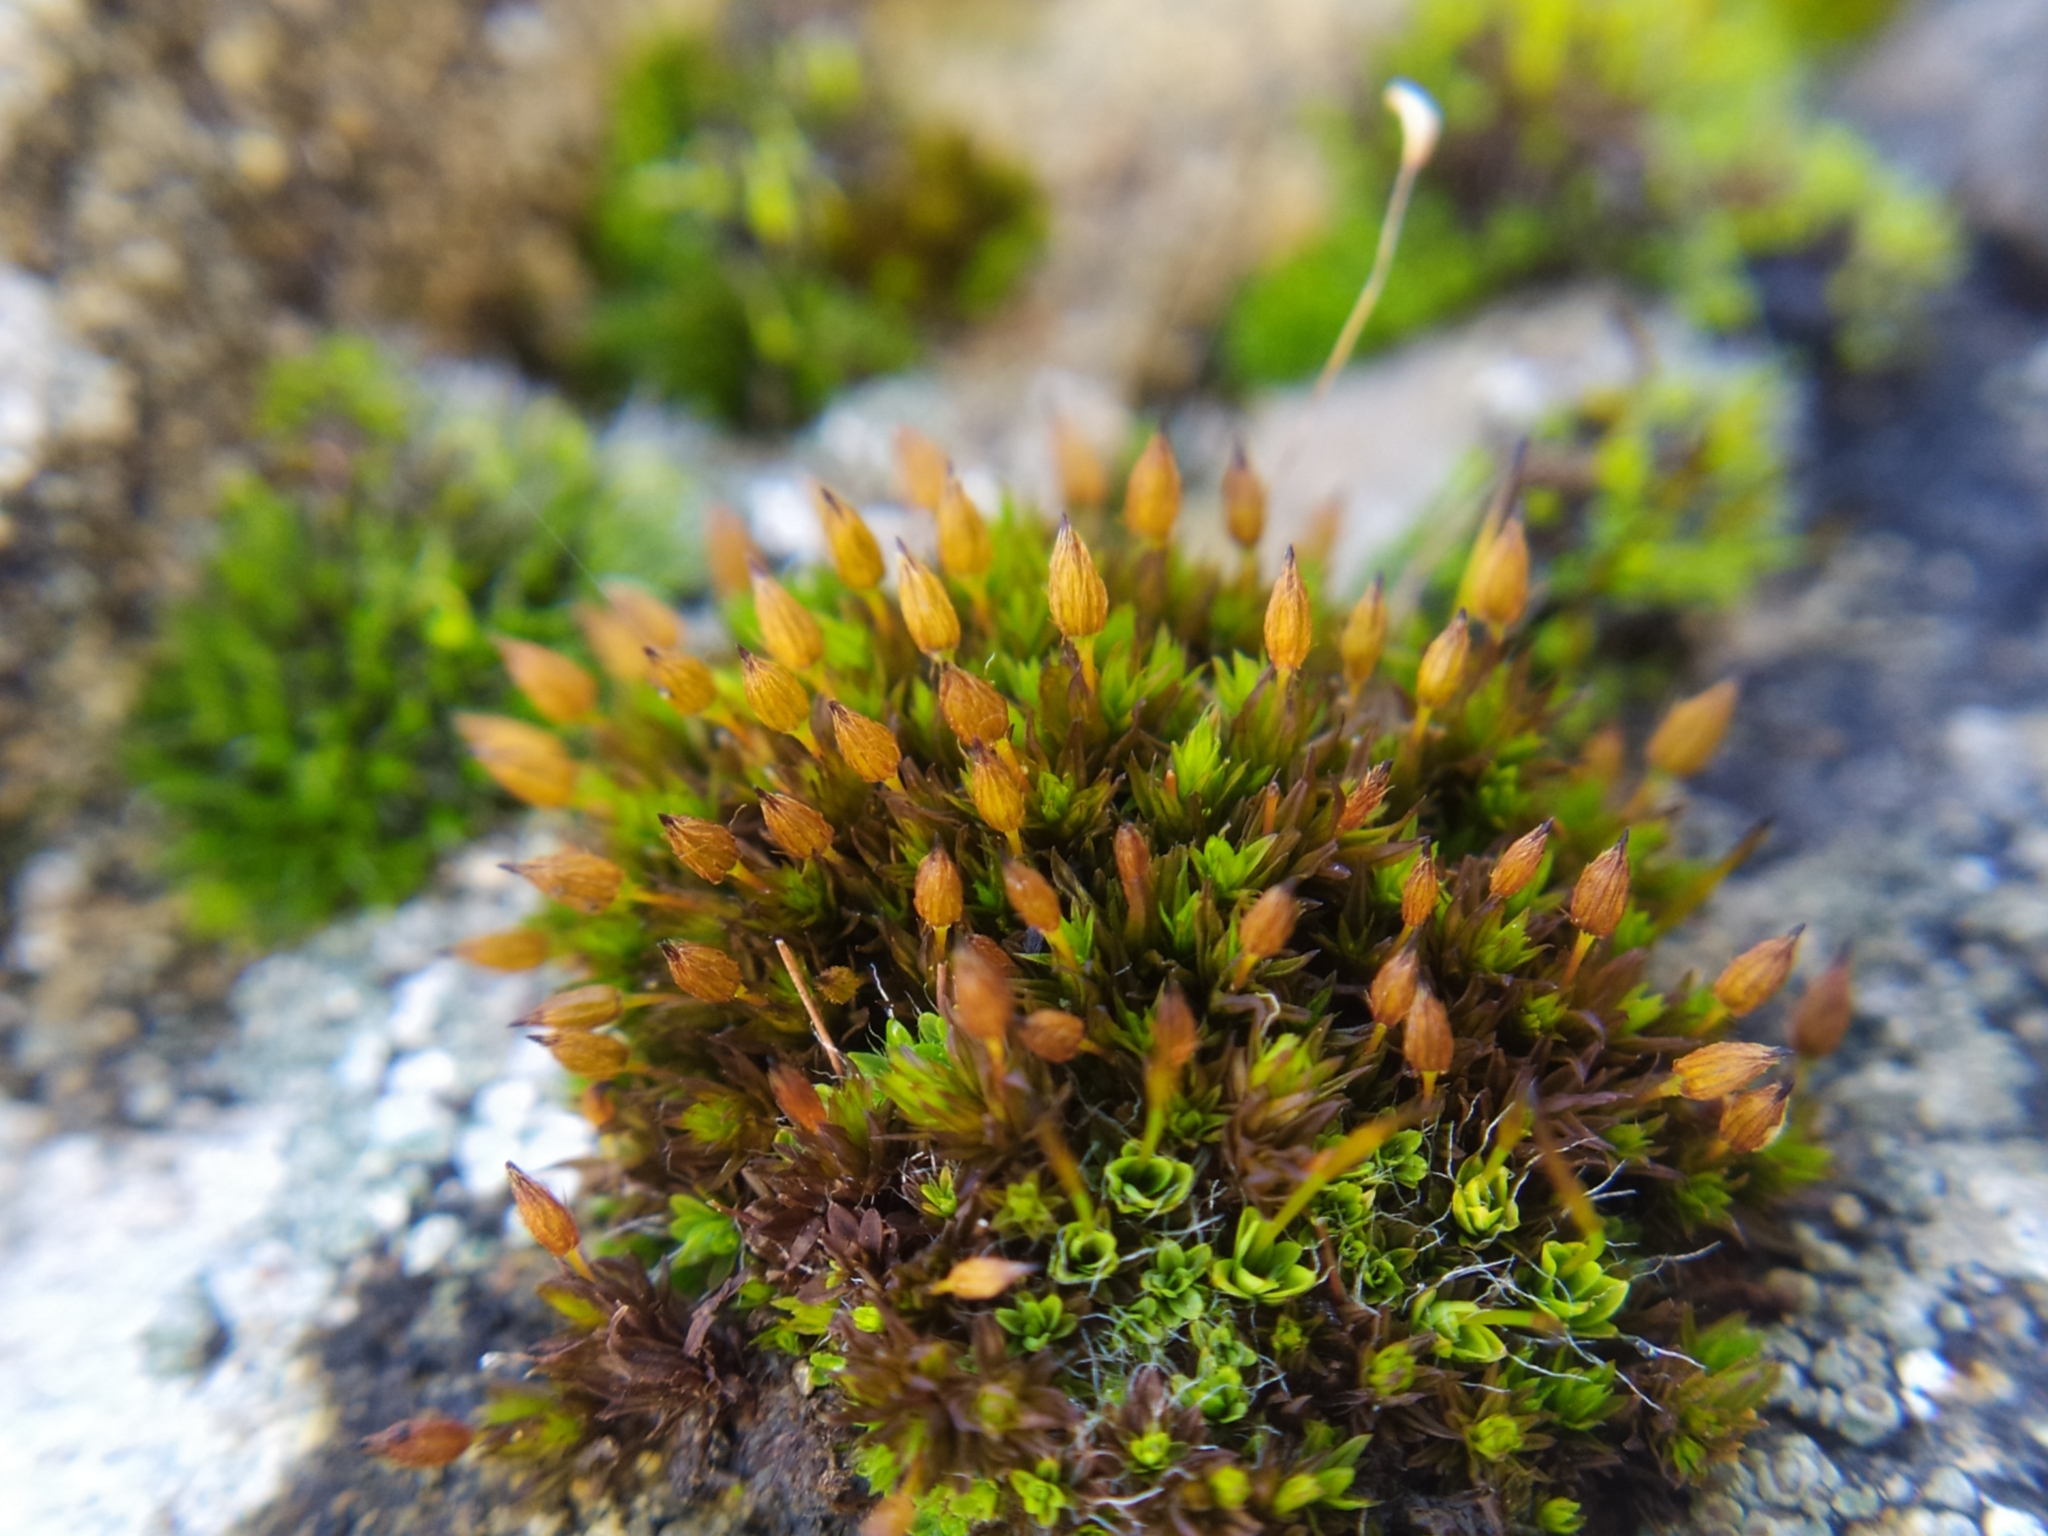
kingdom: Plantae
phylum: Bryophyta
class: Bryopsida
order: Orthotrichales
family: Orthotrichaceae
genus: Orthotrichum
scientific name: Orthotrichum anomalum
